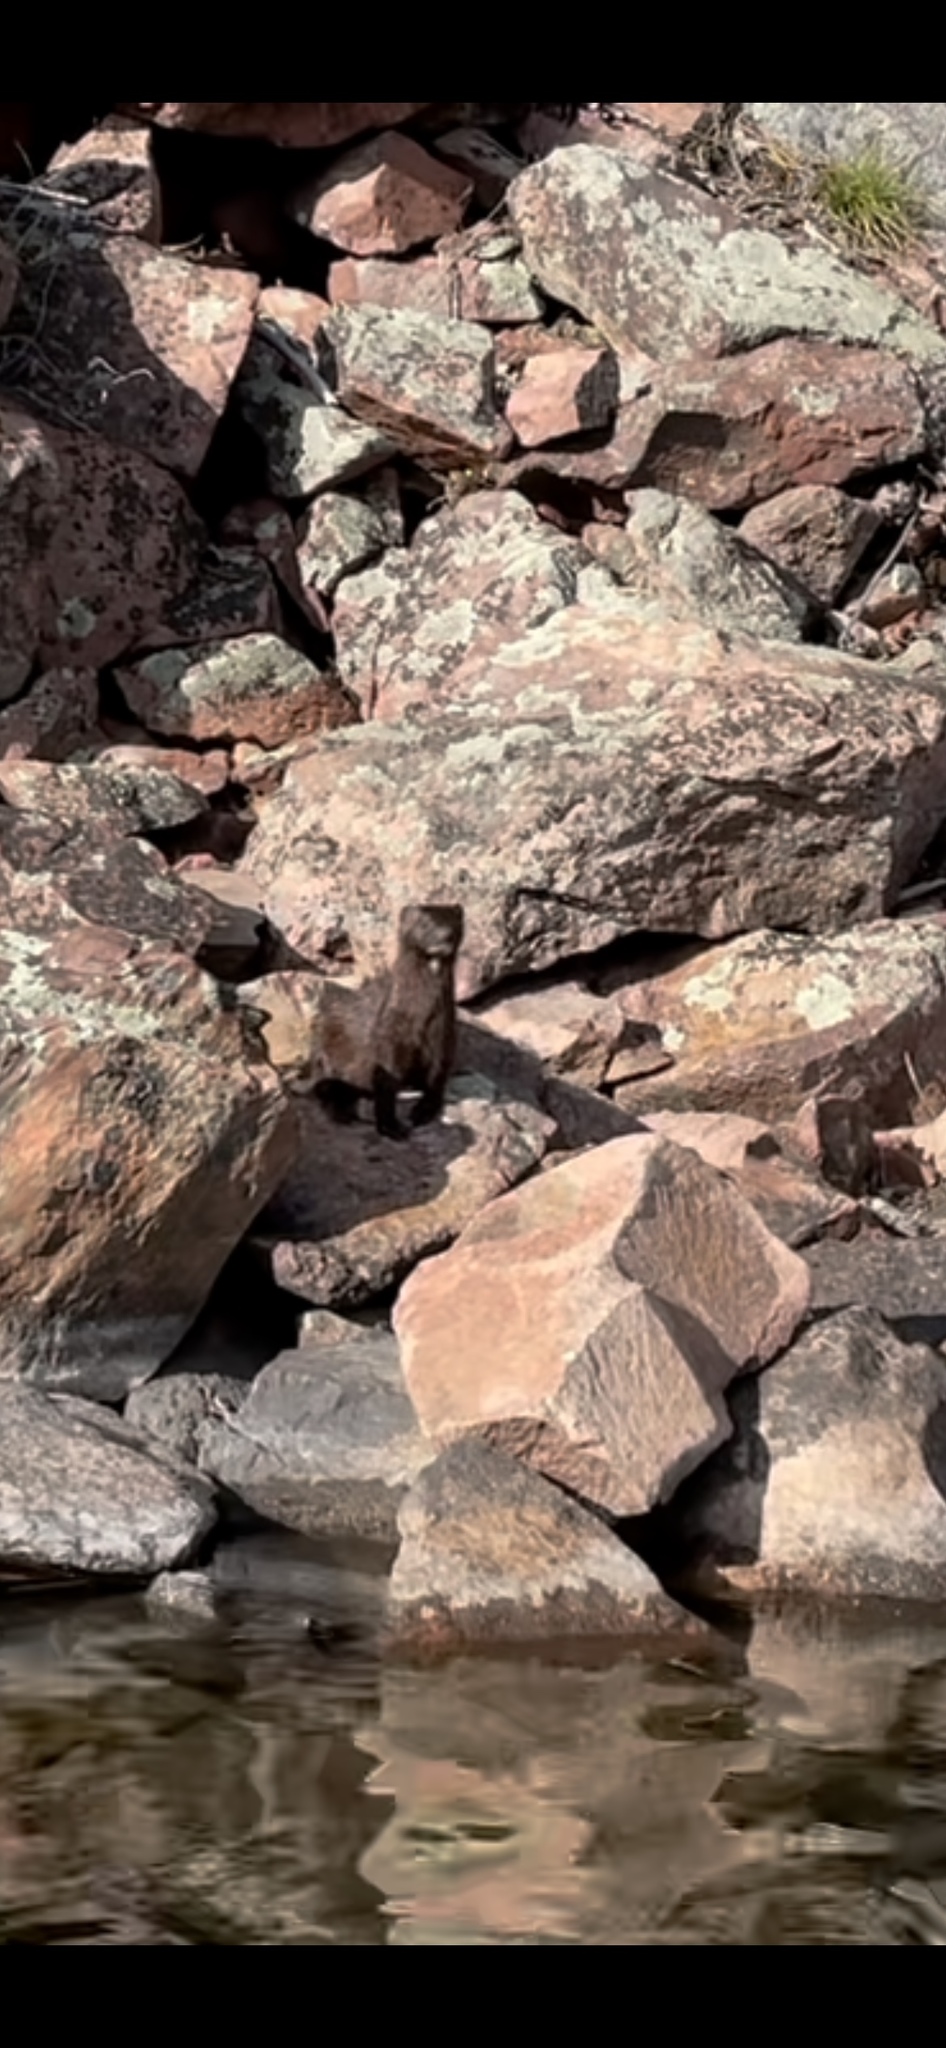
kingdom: Animalia
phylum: Chordata
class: Mammalia
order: Carnivora
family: Mustelidae
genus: Mustela
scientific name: Mustela
